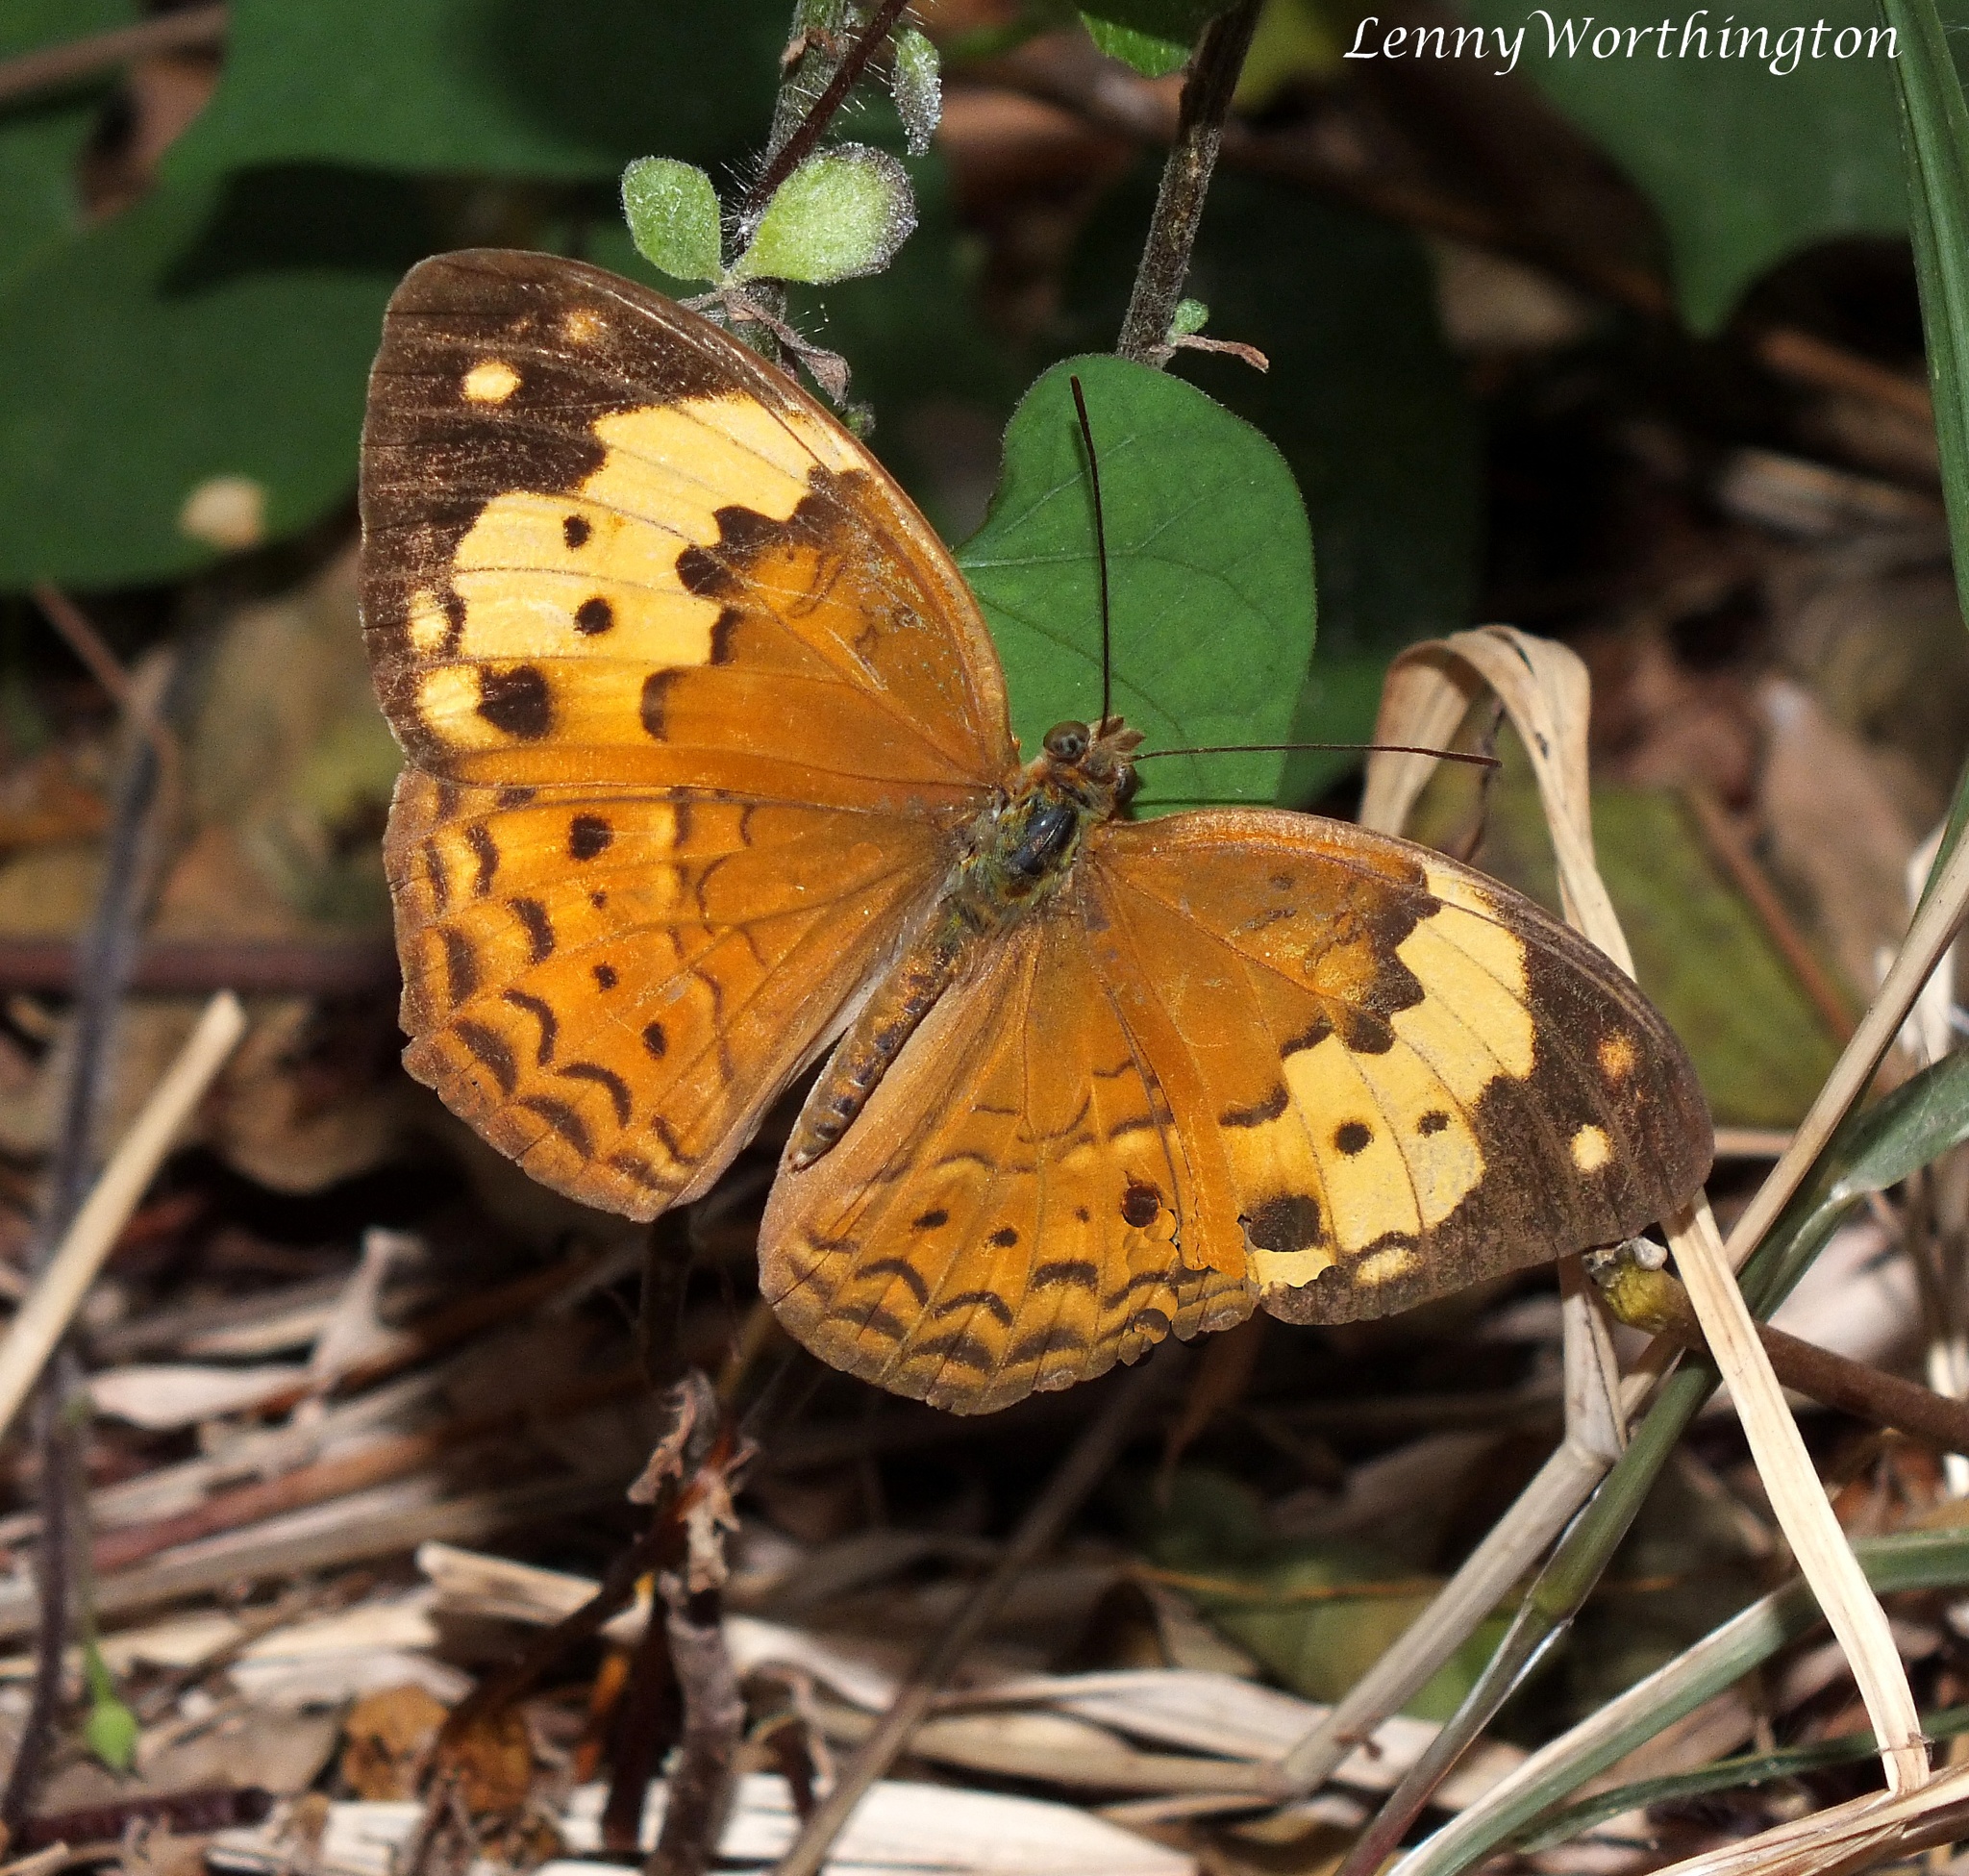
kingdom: Animalia
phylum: Arthropoda
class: Insecta
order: Lepidoptera
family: Nymphalidae
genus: Cupha
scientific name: Cupha erymanthis
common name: Rustic
